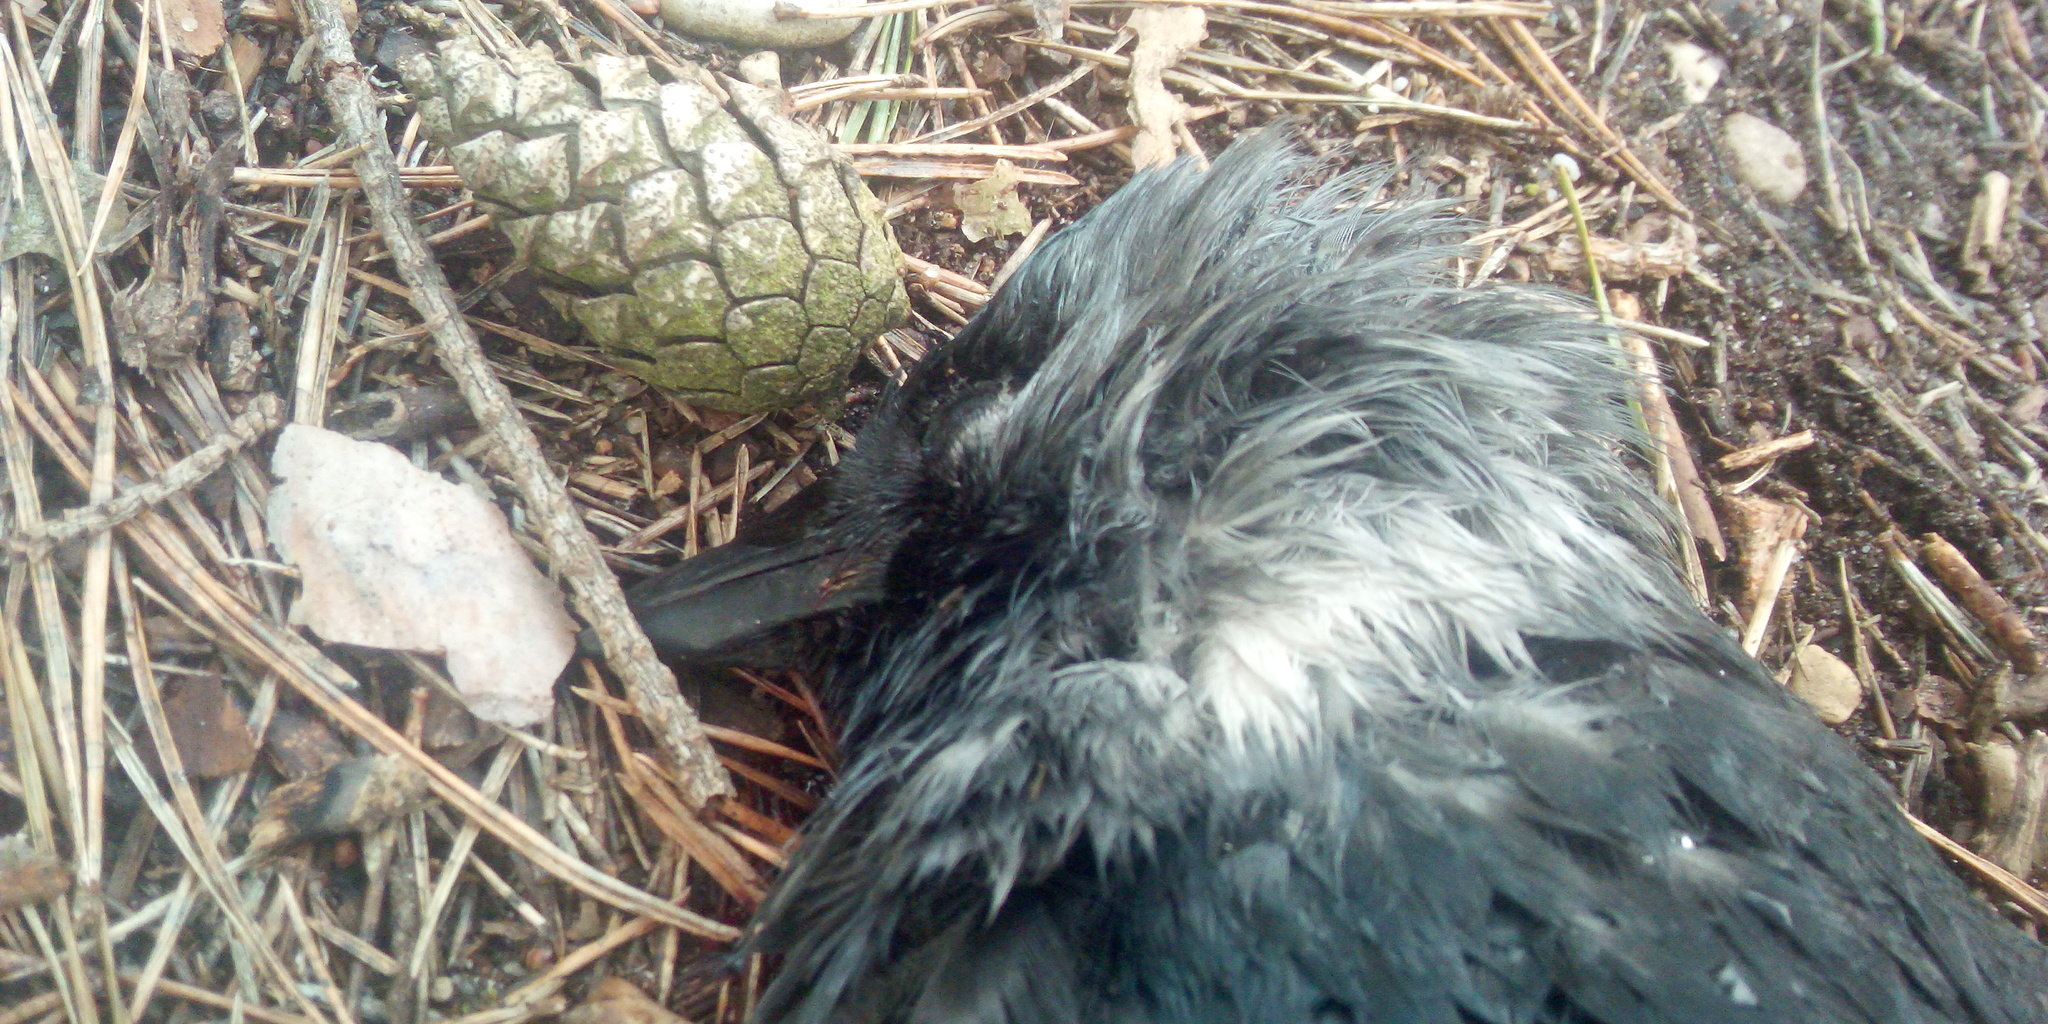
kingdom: Animalia
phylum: Chordata
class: Aves
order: Passeriformes
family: Corvidae
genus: Coloeus
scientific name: Coloeus monedula
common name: Western jackdaw
